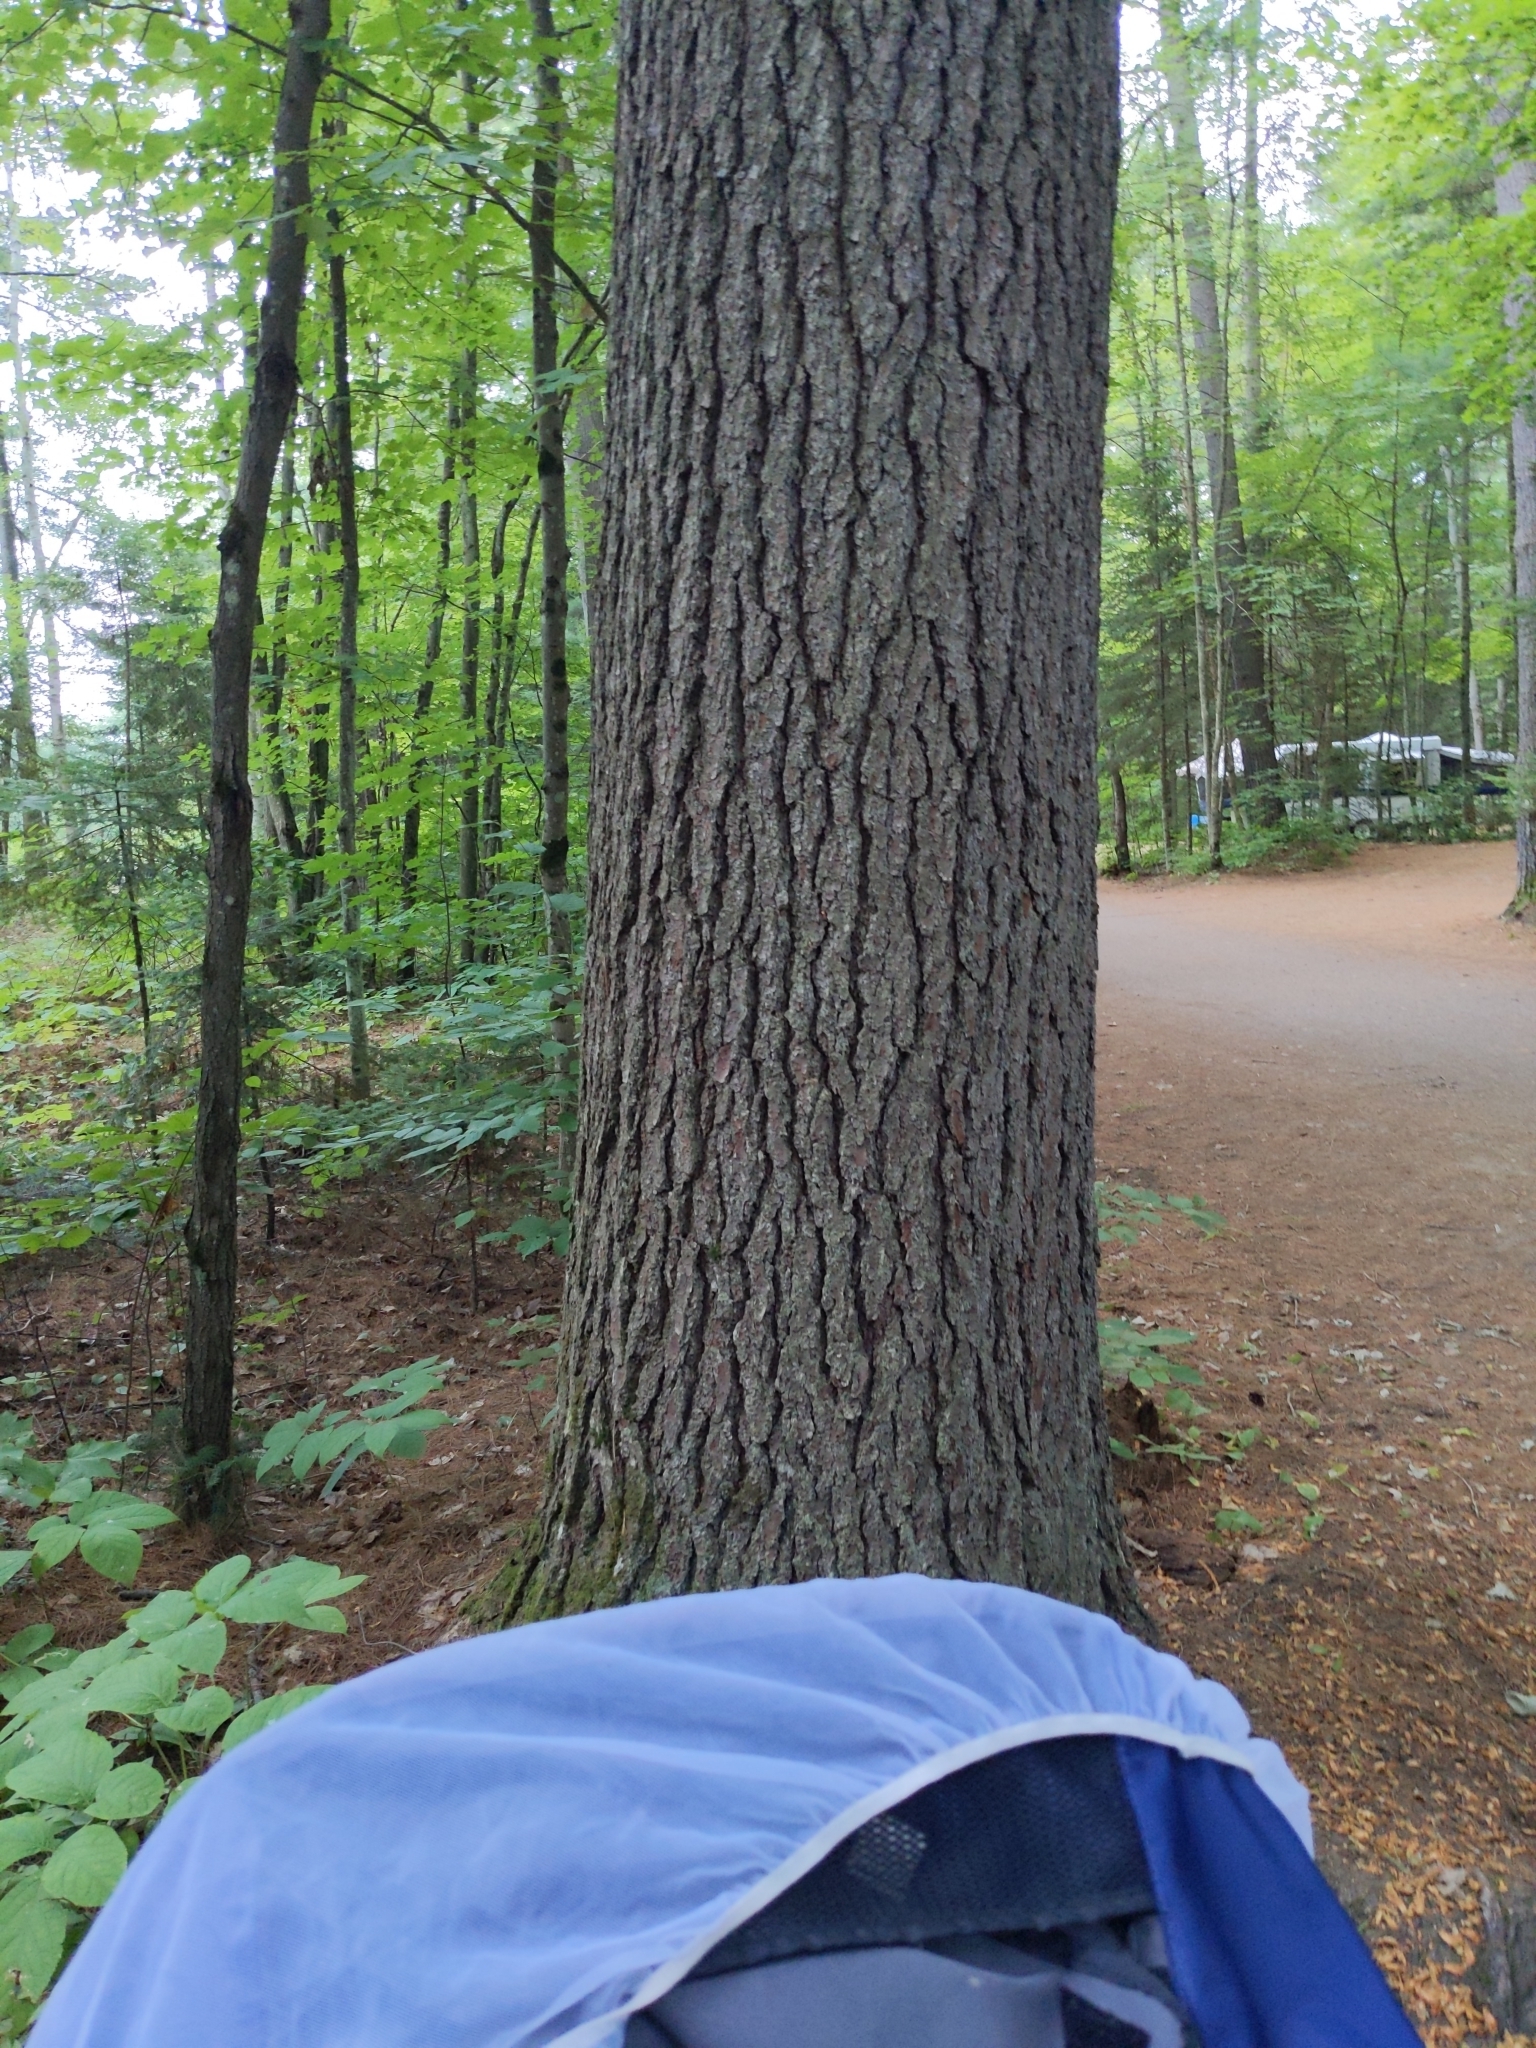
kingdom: Plantae
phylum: Tracheophyta
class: Pinopsida
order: Pinales
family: Pinaceae
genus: Pinus
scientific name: Pinus strobus
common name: Weymouth pine
